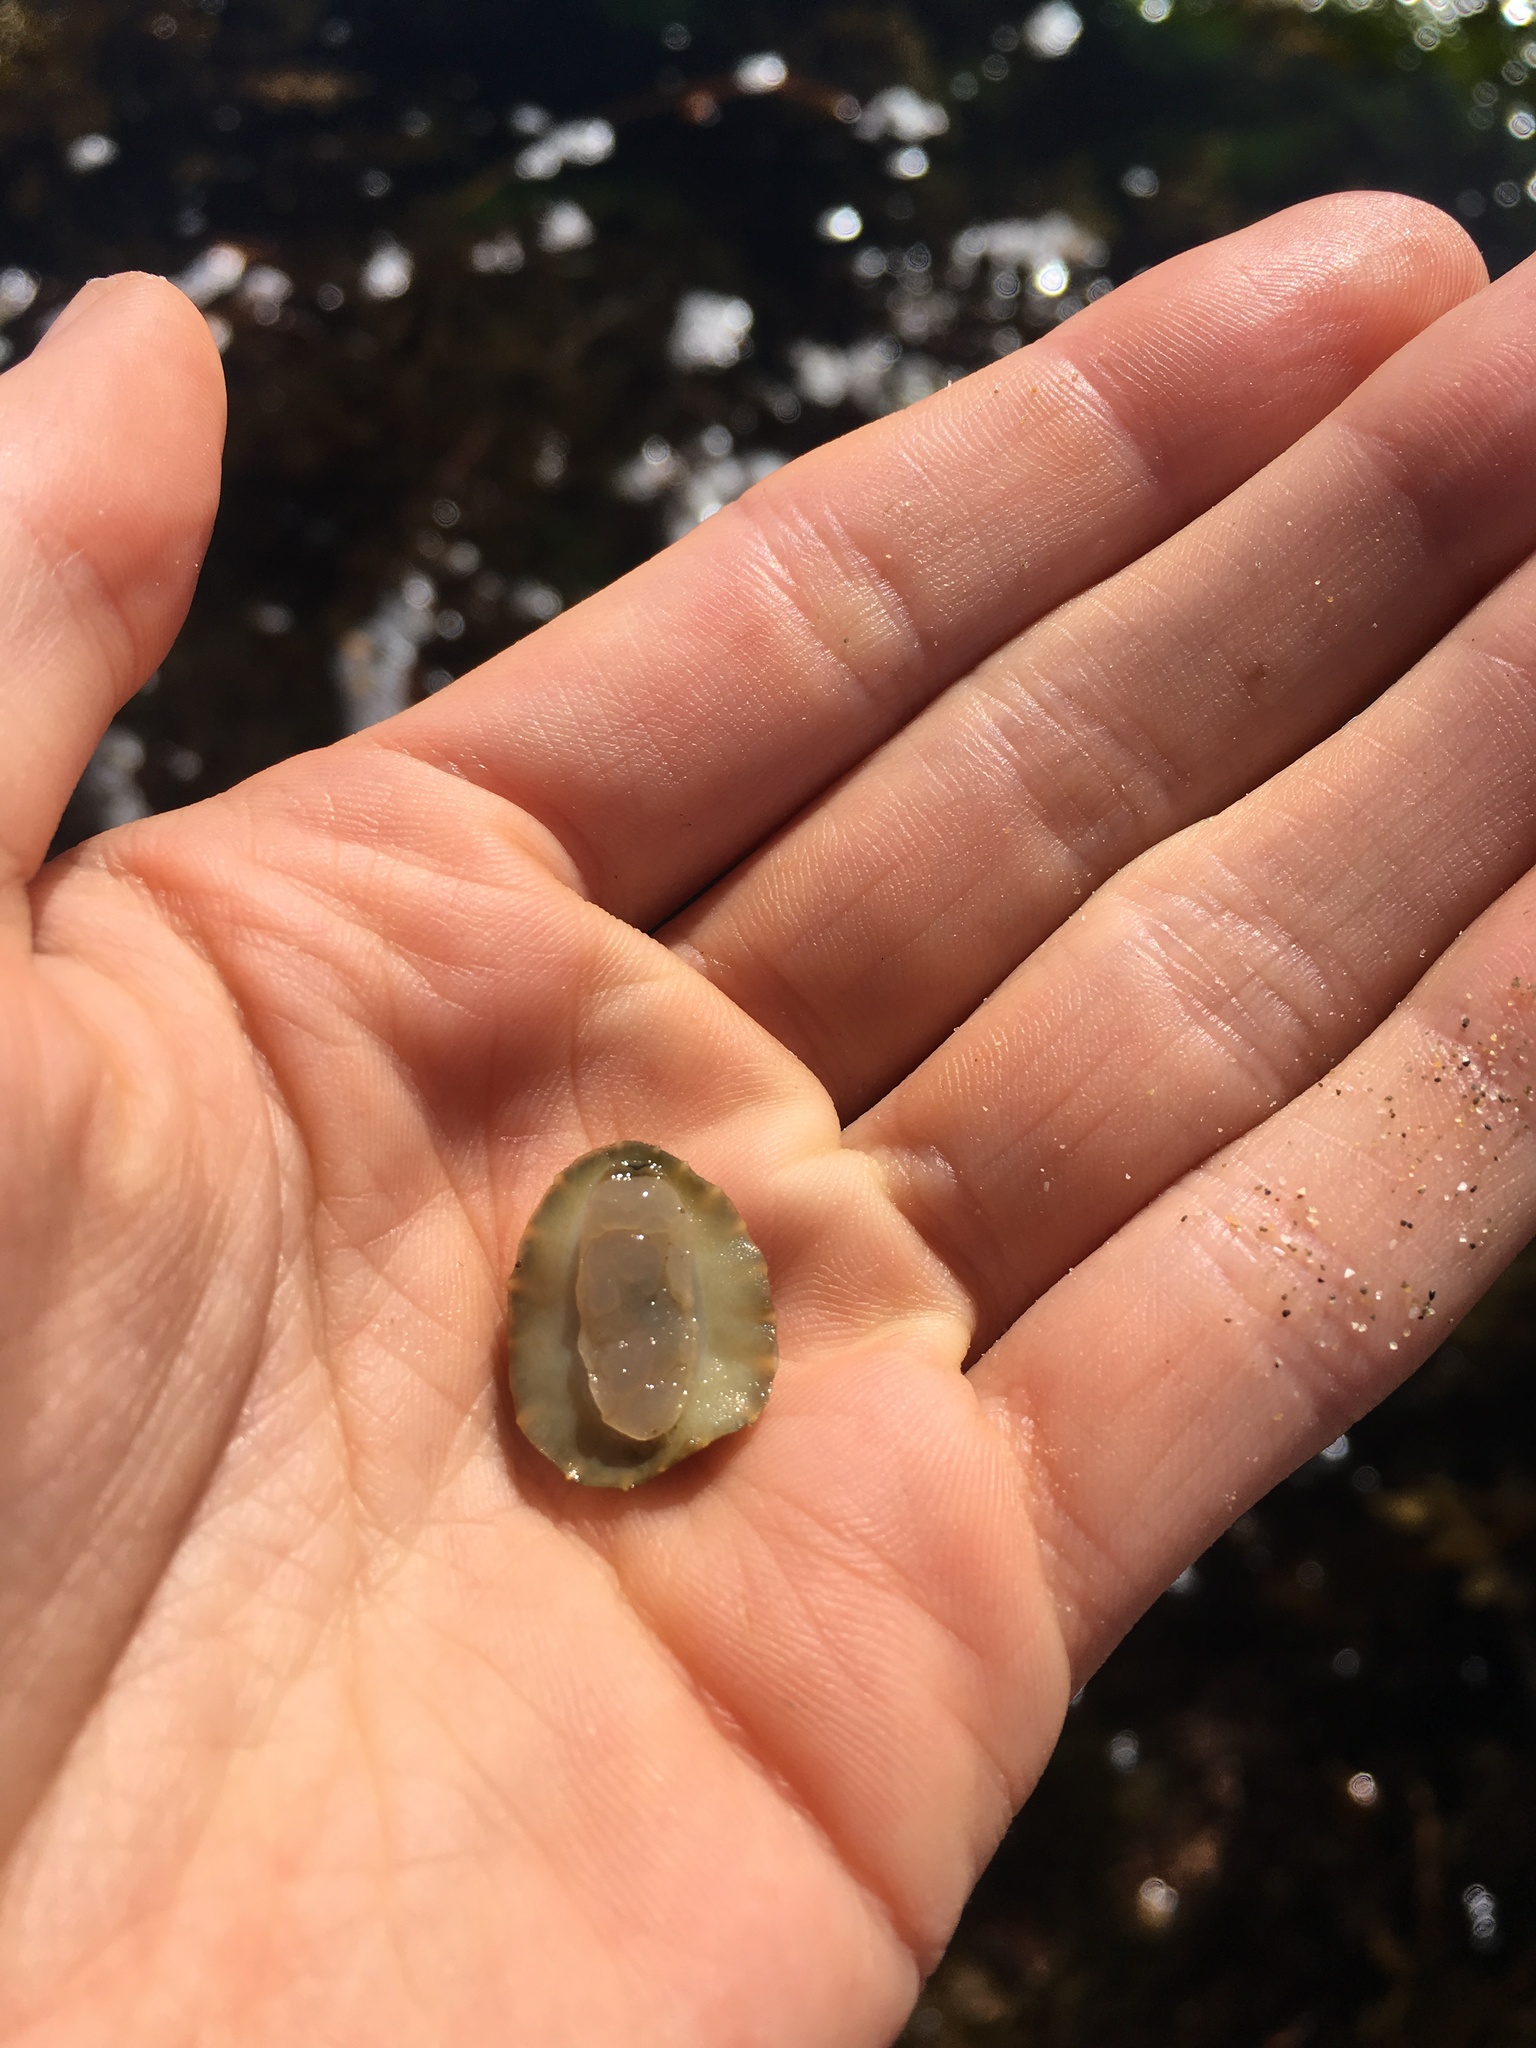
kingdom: Animalia
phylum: Mollusca
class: Gastropoda
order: Systellommatophora
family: Onchidiidae
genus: Onchidella
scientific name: Onchidella nigricans
